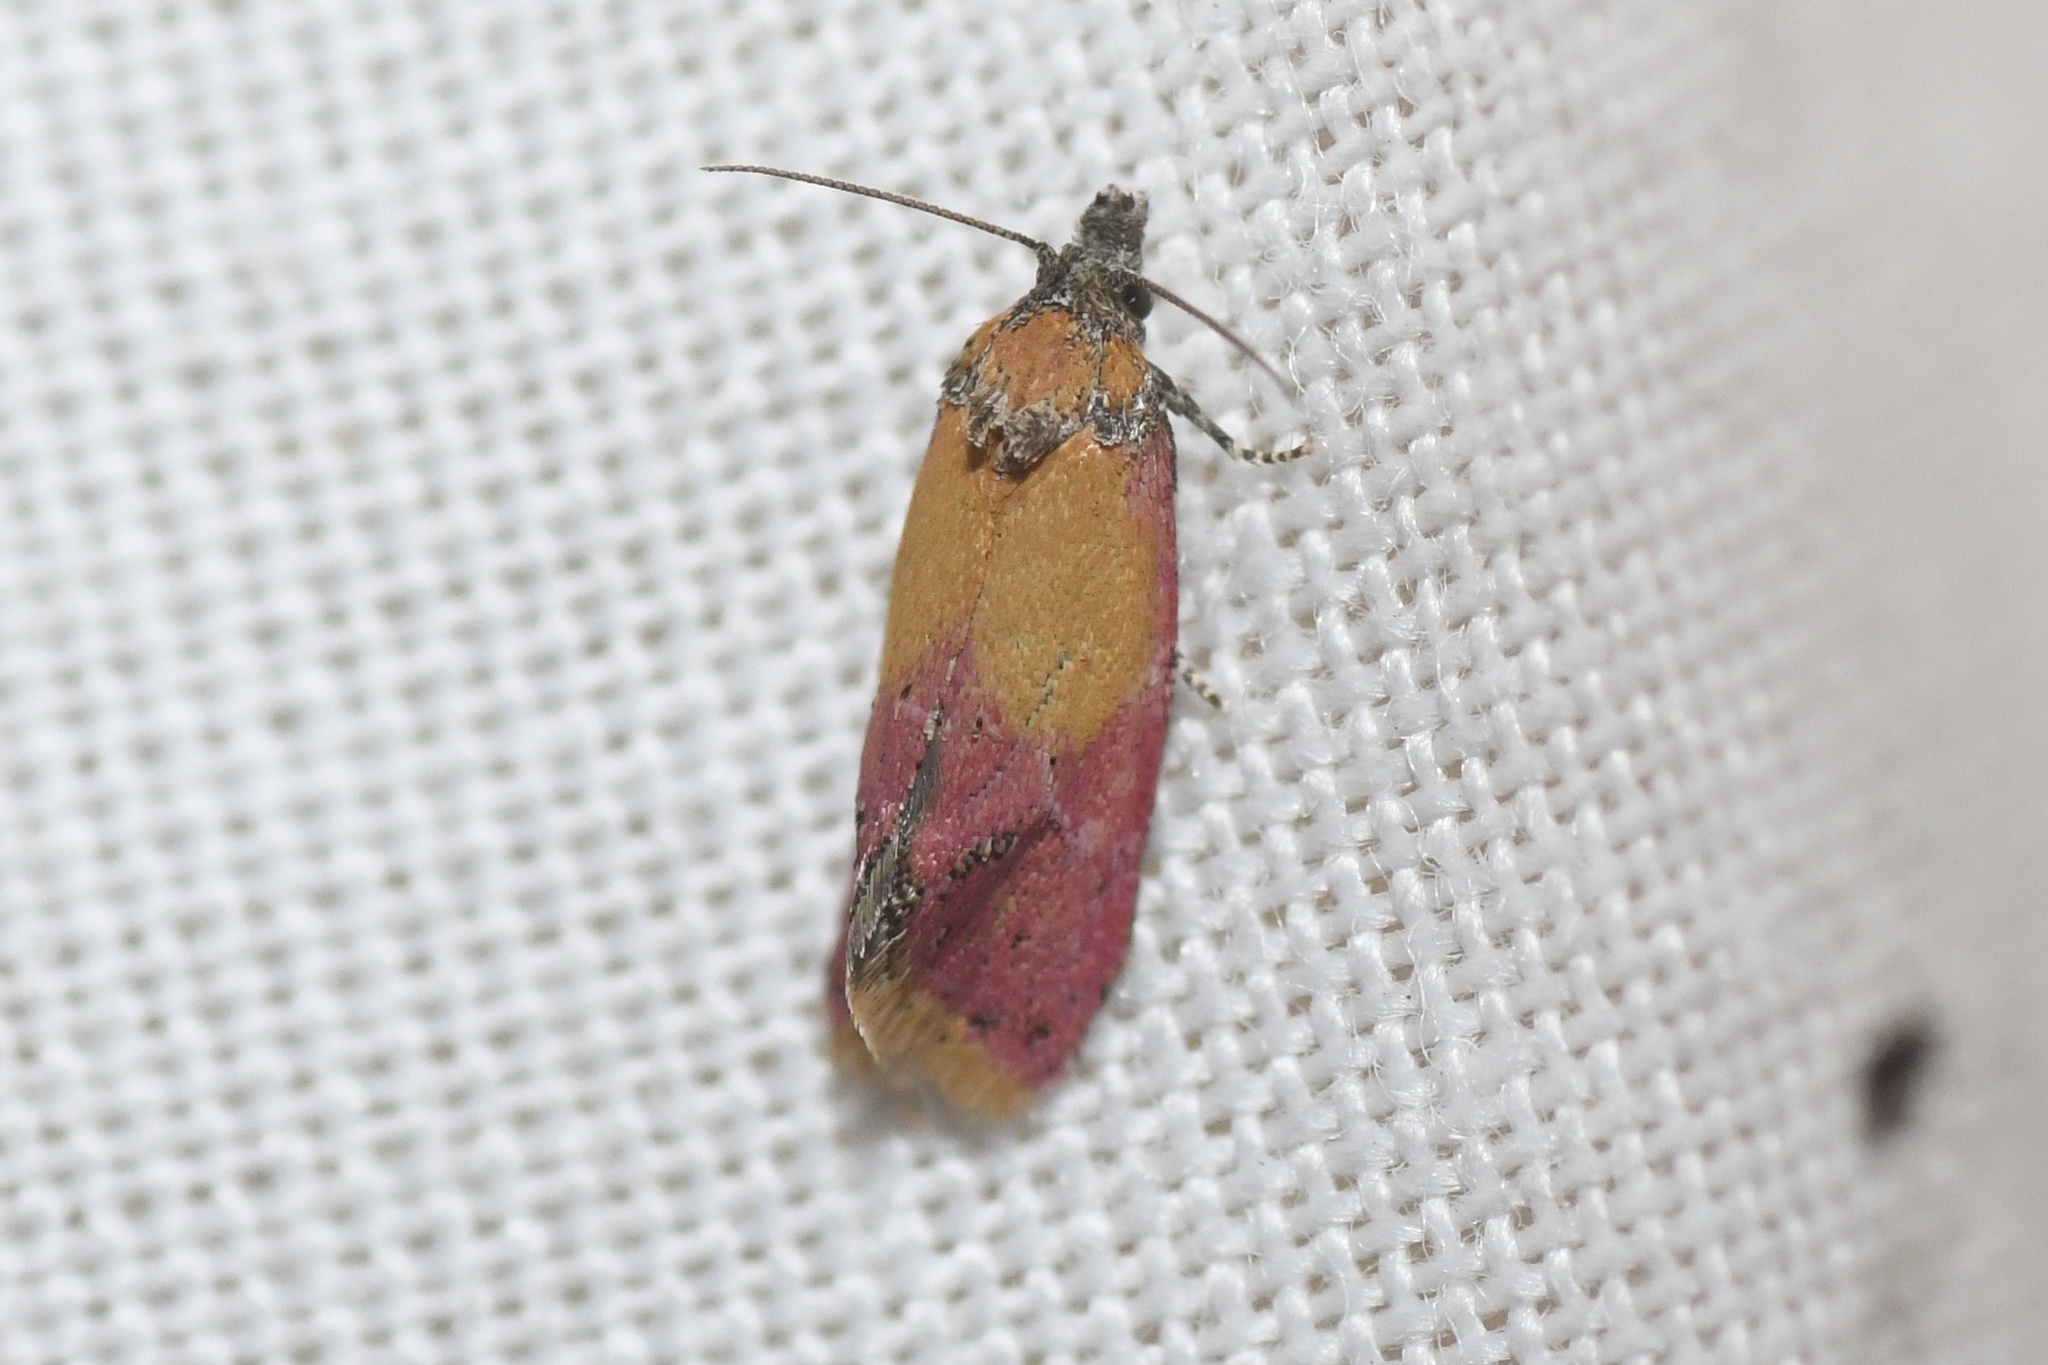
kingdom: Animalia
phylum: Arthropoda
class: Insecta
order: Lepidoptera
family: Tortricidae
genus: Conchylis
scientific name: Conchylis oenotherana
